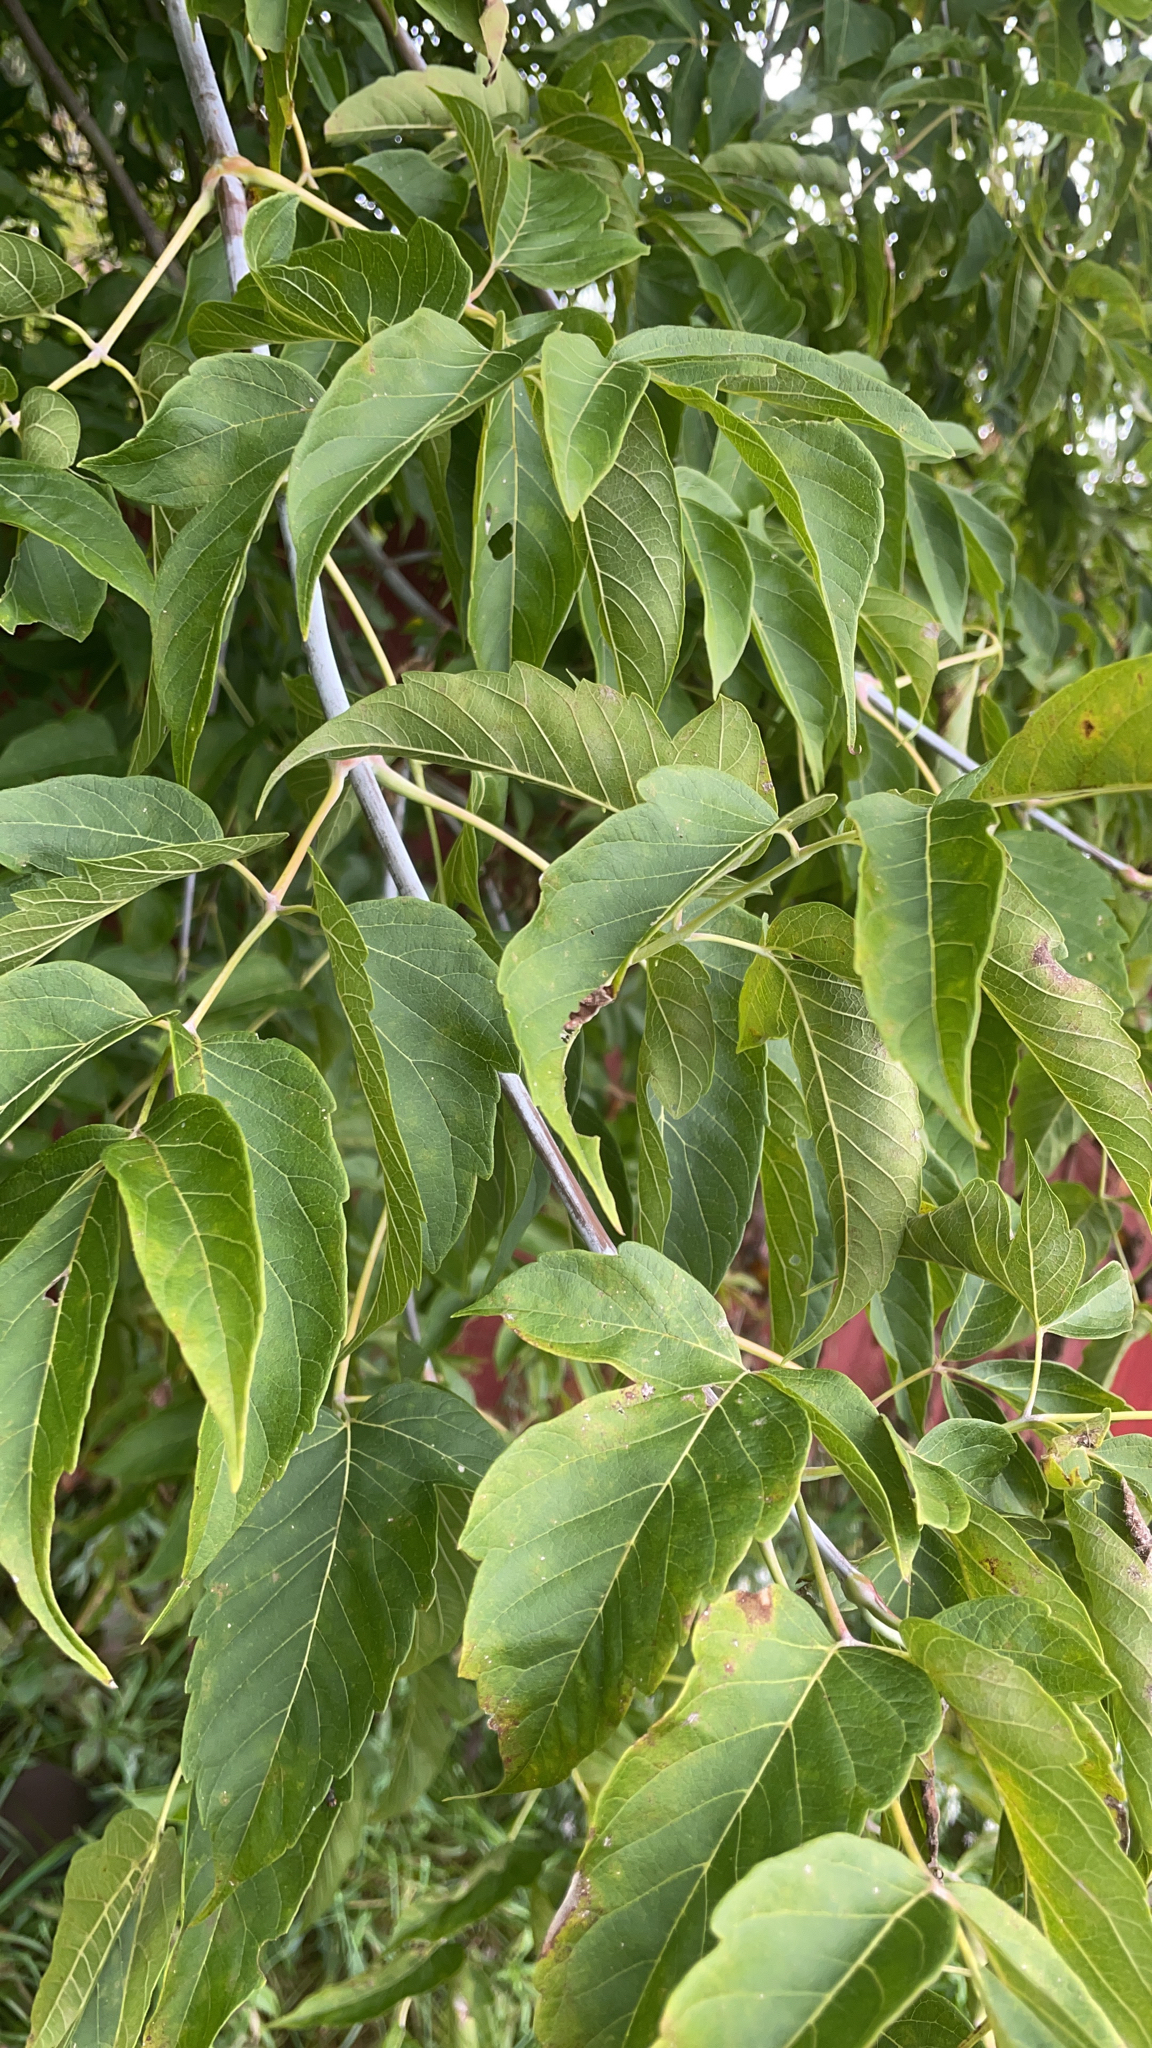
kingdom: Plantae
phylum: Tracheophyta
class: Magnoliopsida
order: Sapindales
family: Sapindaceae
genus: Acer
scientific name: Acer negundo
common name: Ashleaf maple
